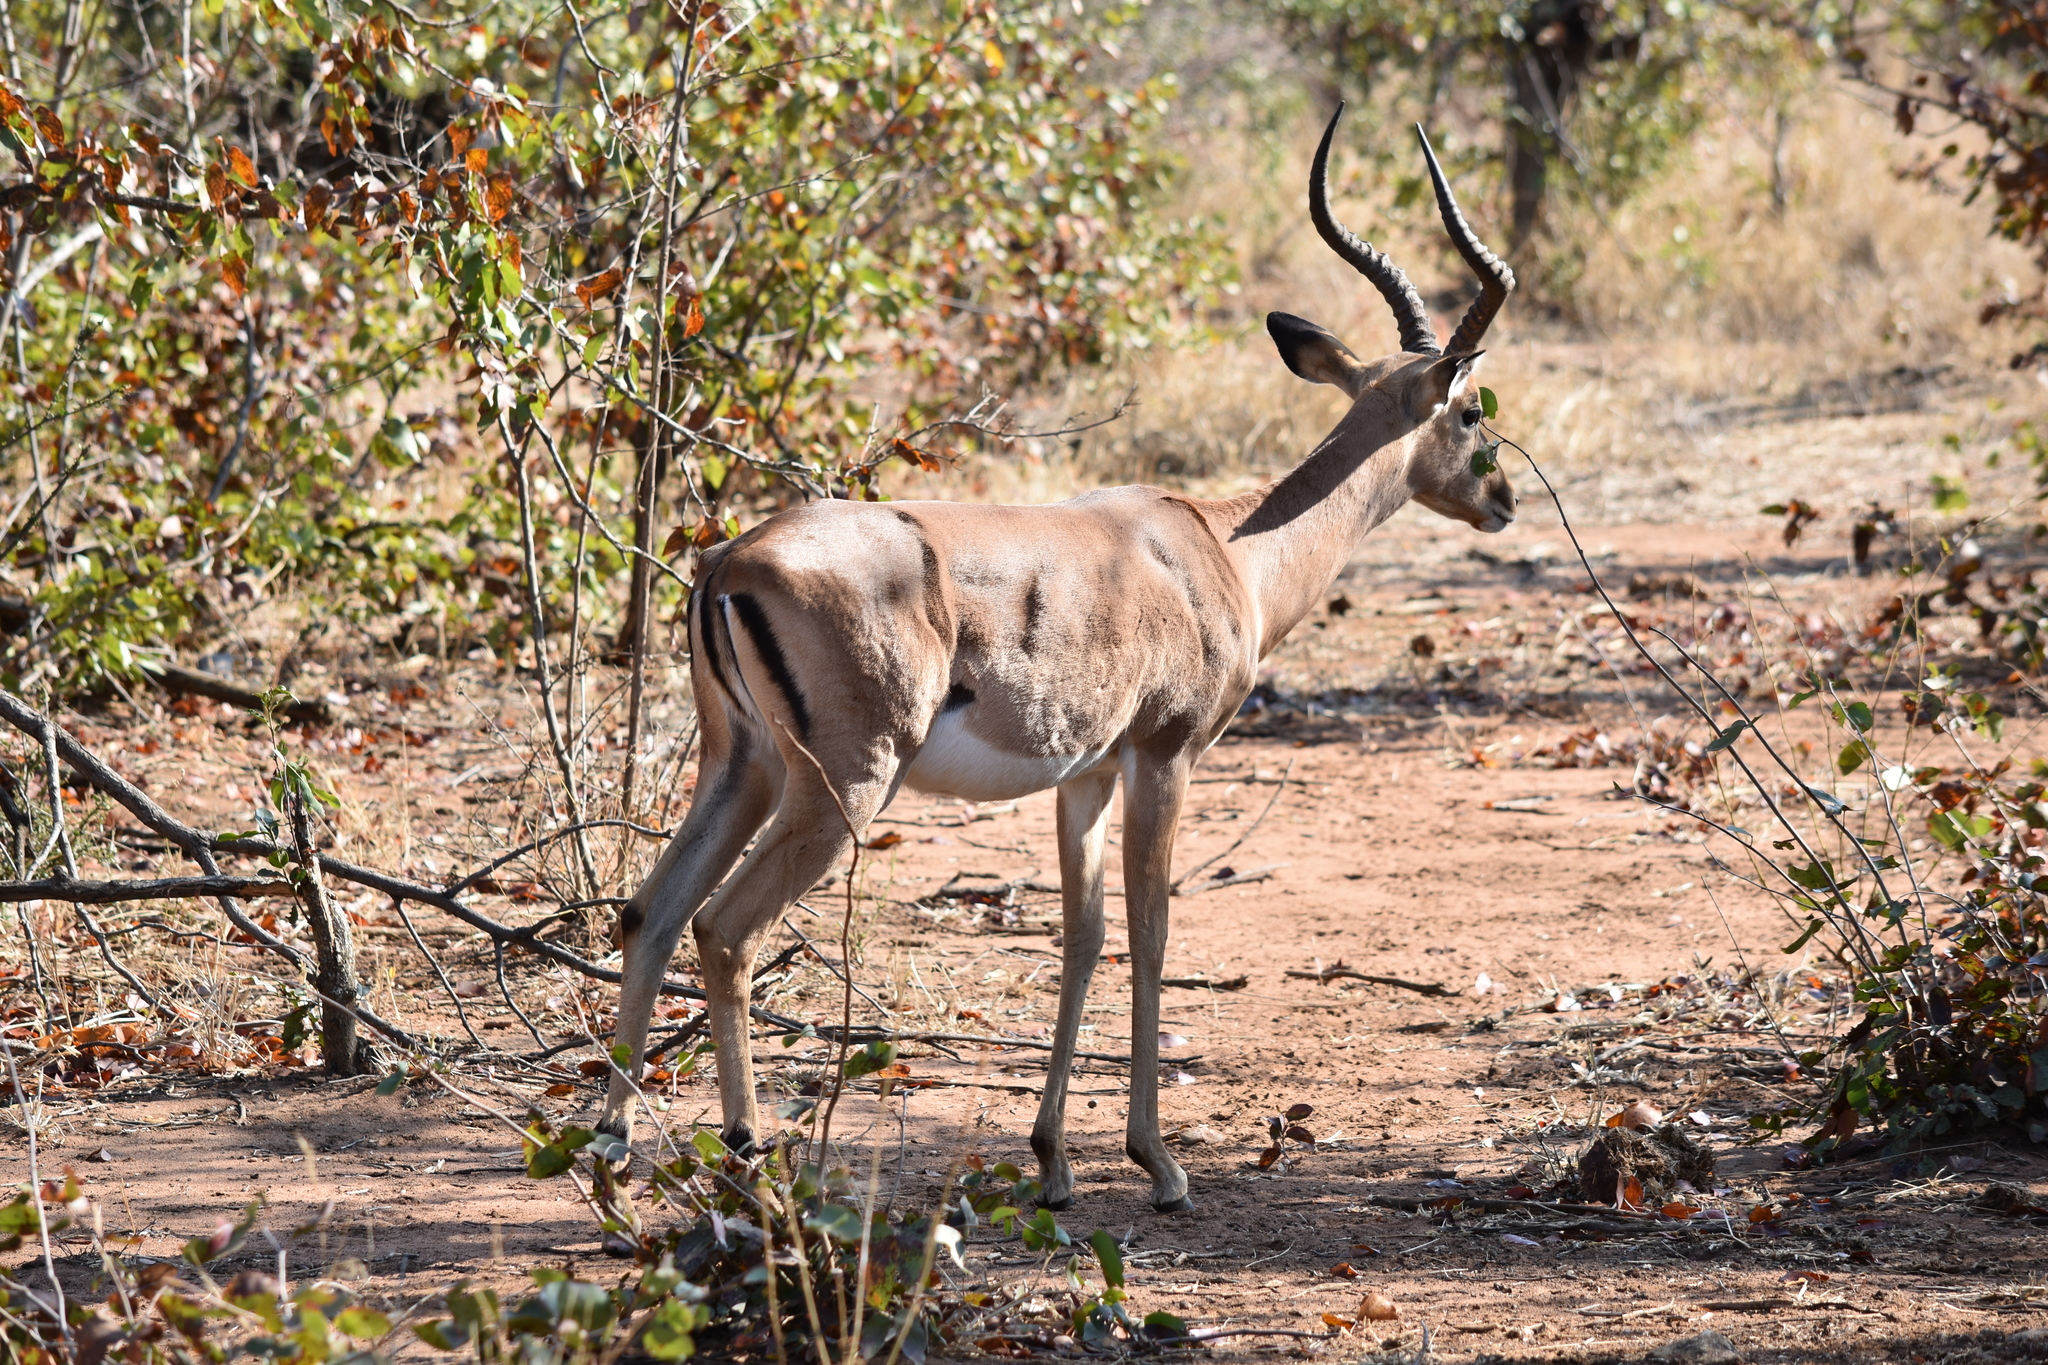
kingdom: Animalia
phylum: Chordata
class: Mammalia
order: Artiodactyla
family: Bovidae
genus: Aepyceros
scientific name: Aepyceros melampus
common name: Impala
